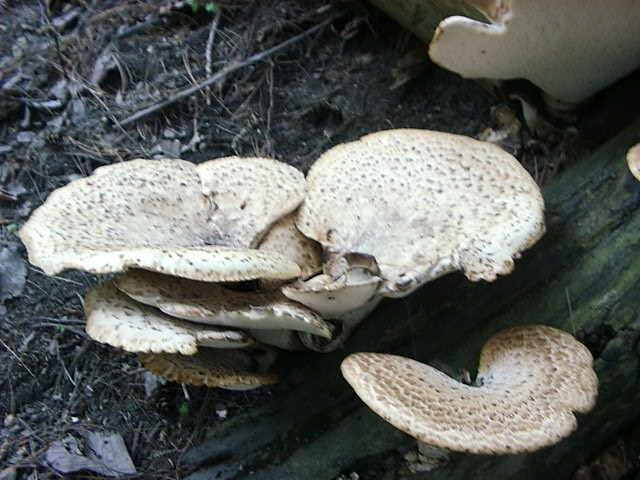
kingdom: Fungi
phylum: Basidiomycota
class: Agaricomycetes
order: Polyporales
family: Polyporaceae
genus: Cerioporus
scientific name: Cerioporus squamosus
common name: Dryad's saddle
